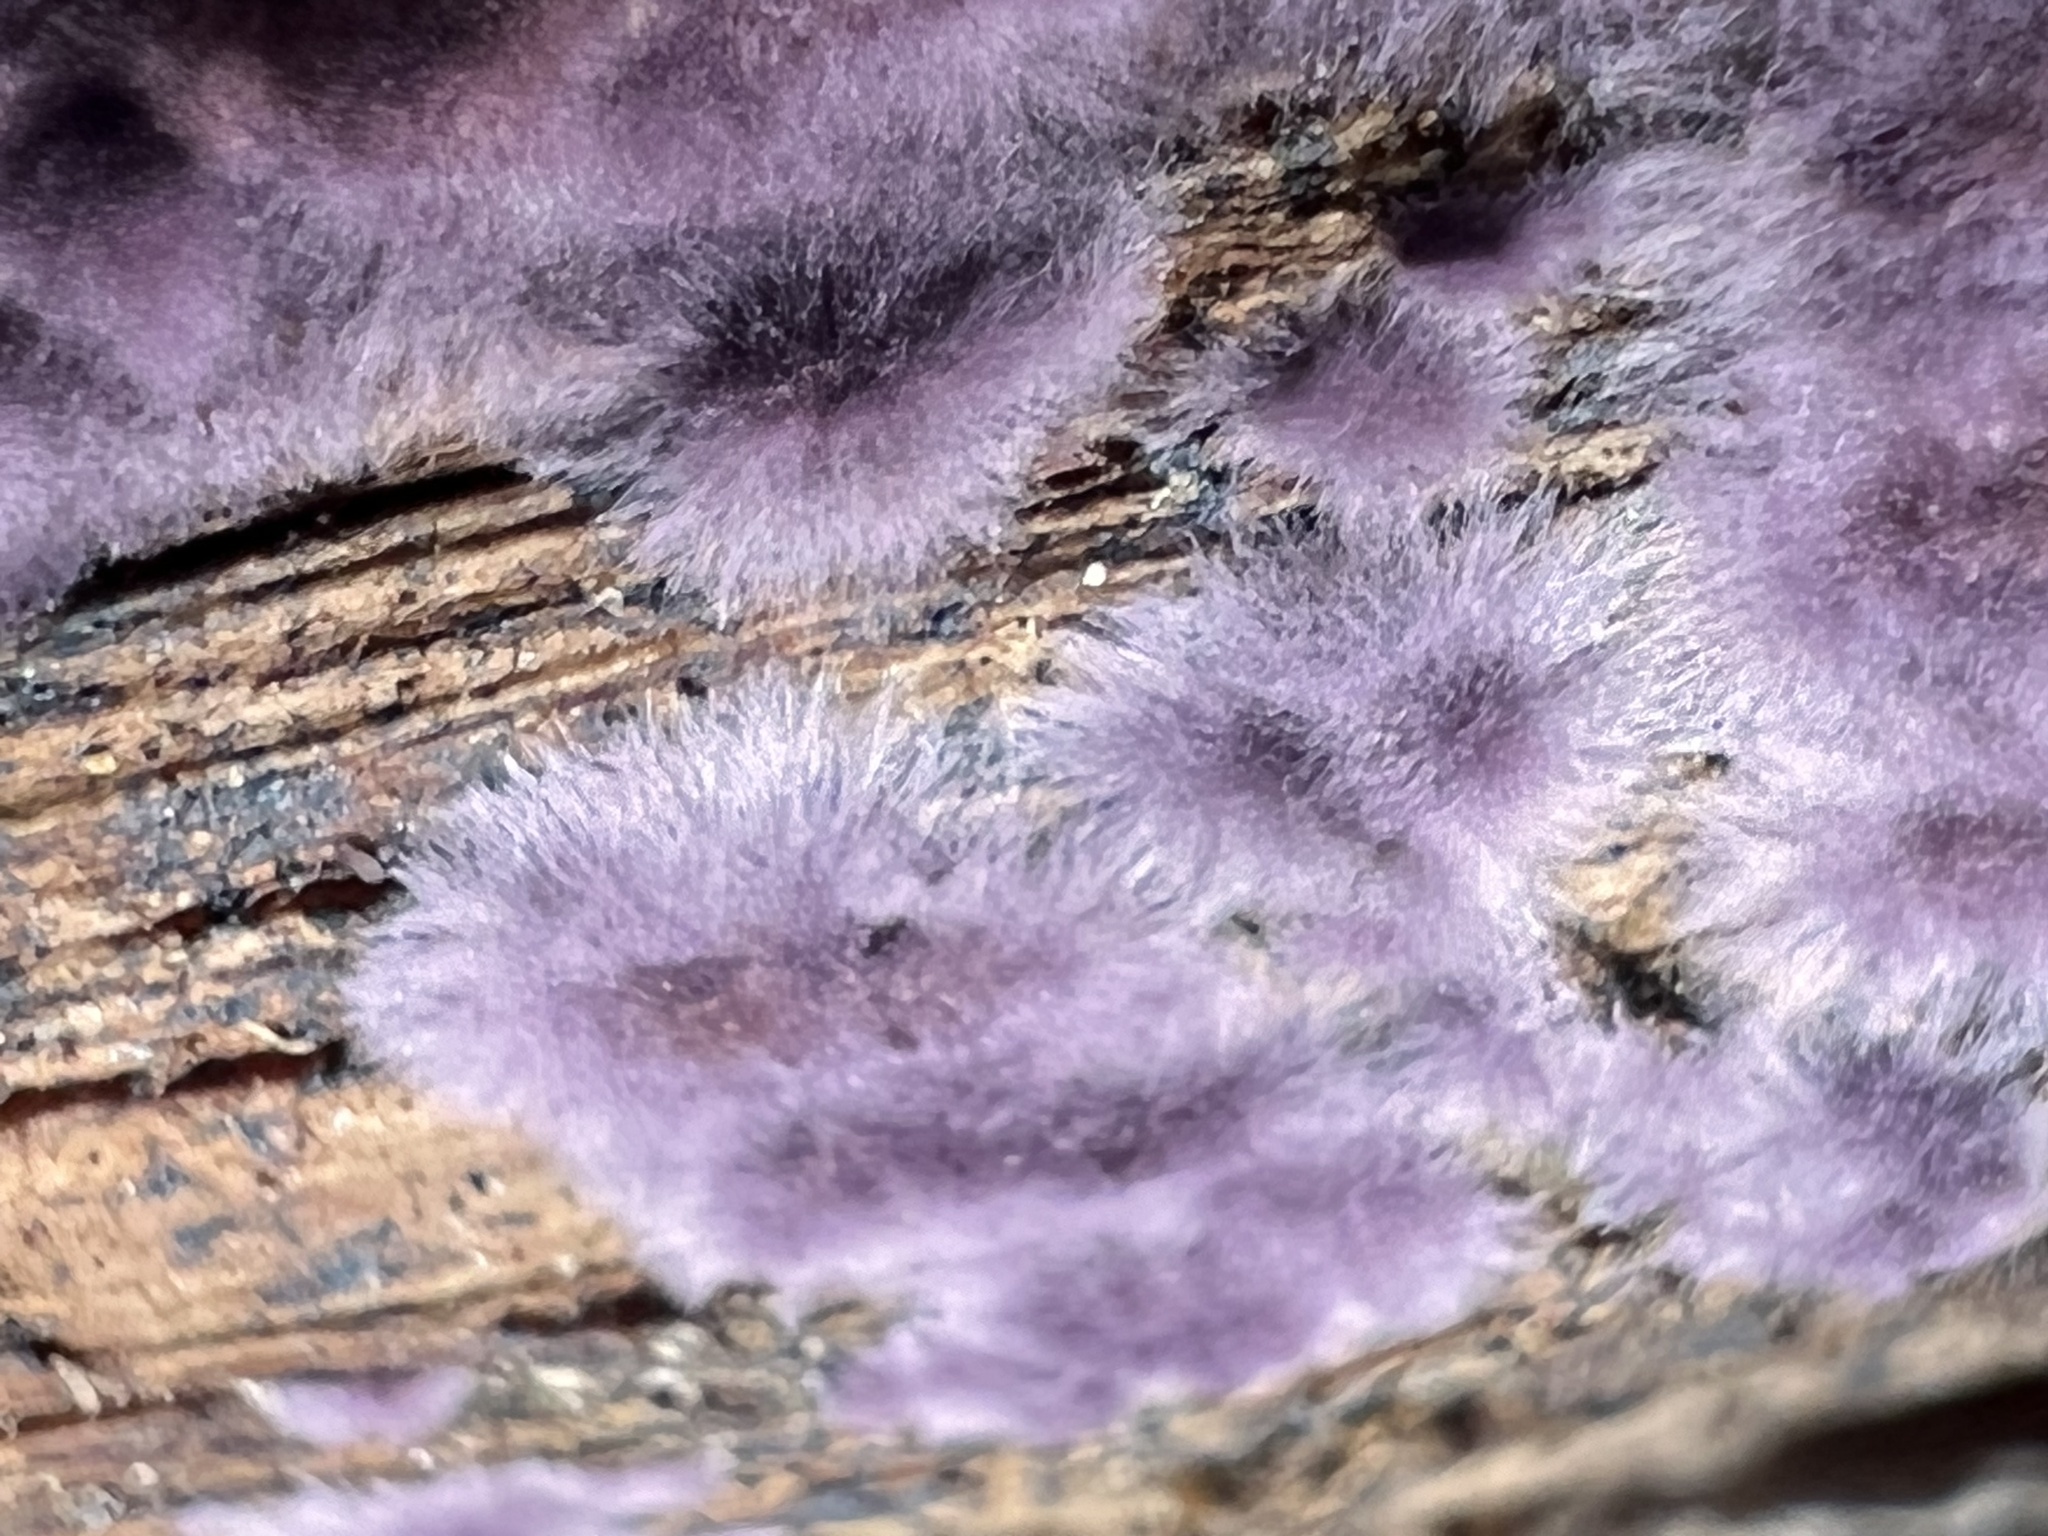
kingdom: Fungi
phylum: Basidiomycota
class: Agaricomycetes
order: Polyporales
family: Phanerochaetaceae
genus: Phlebiopsis
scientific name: Phlebiopsis crassa
